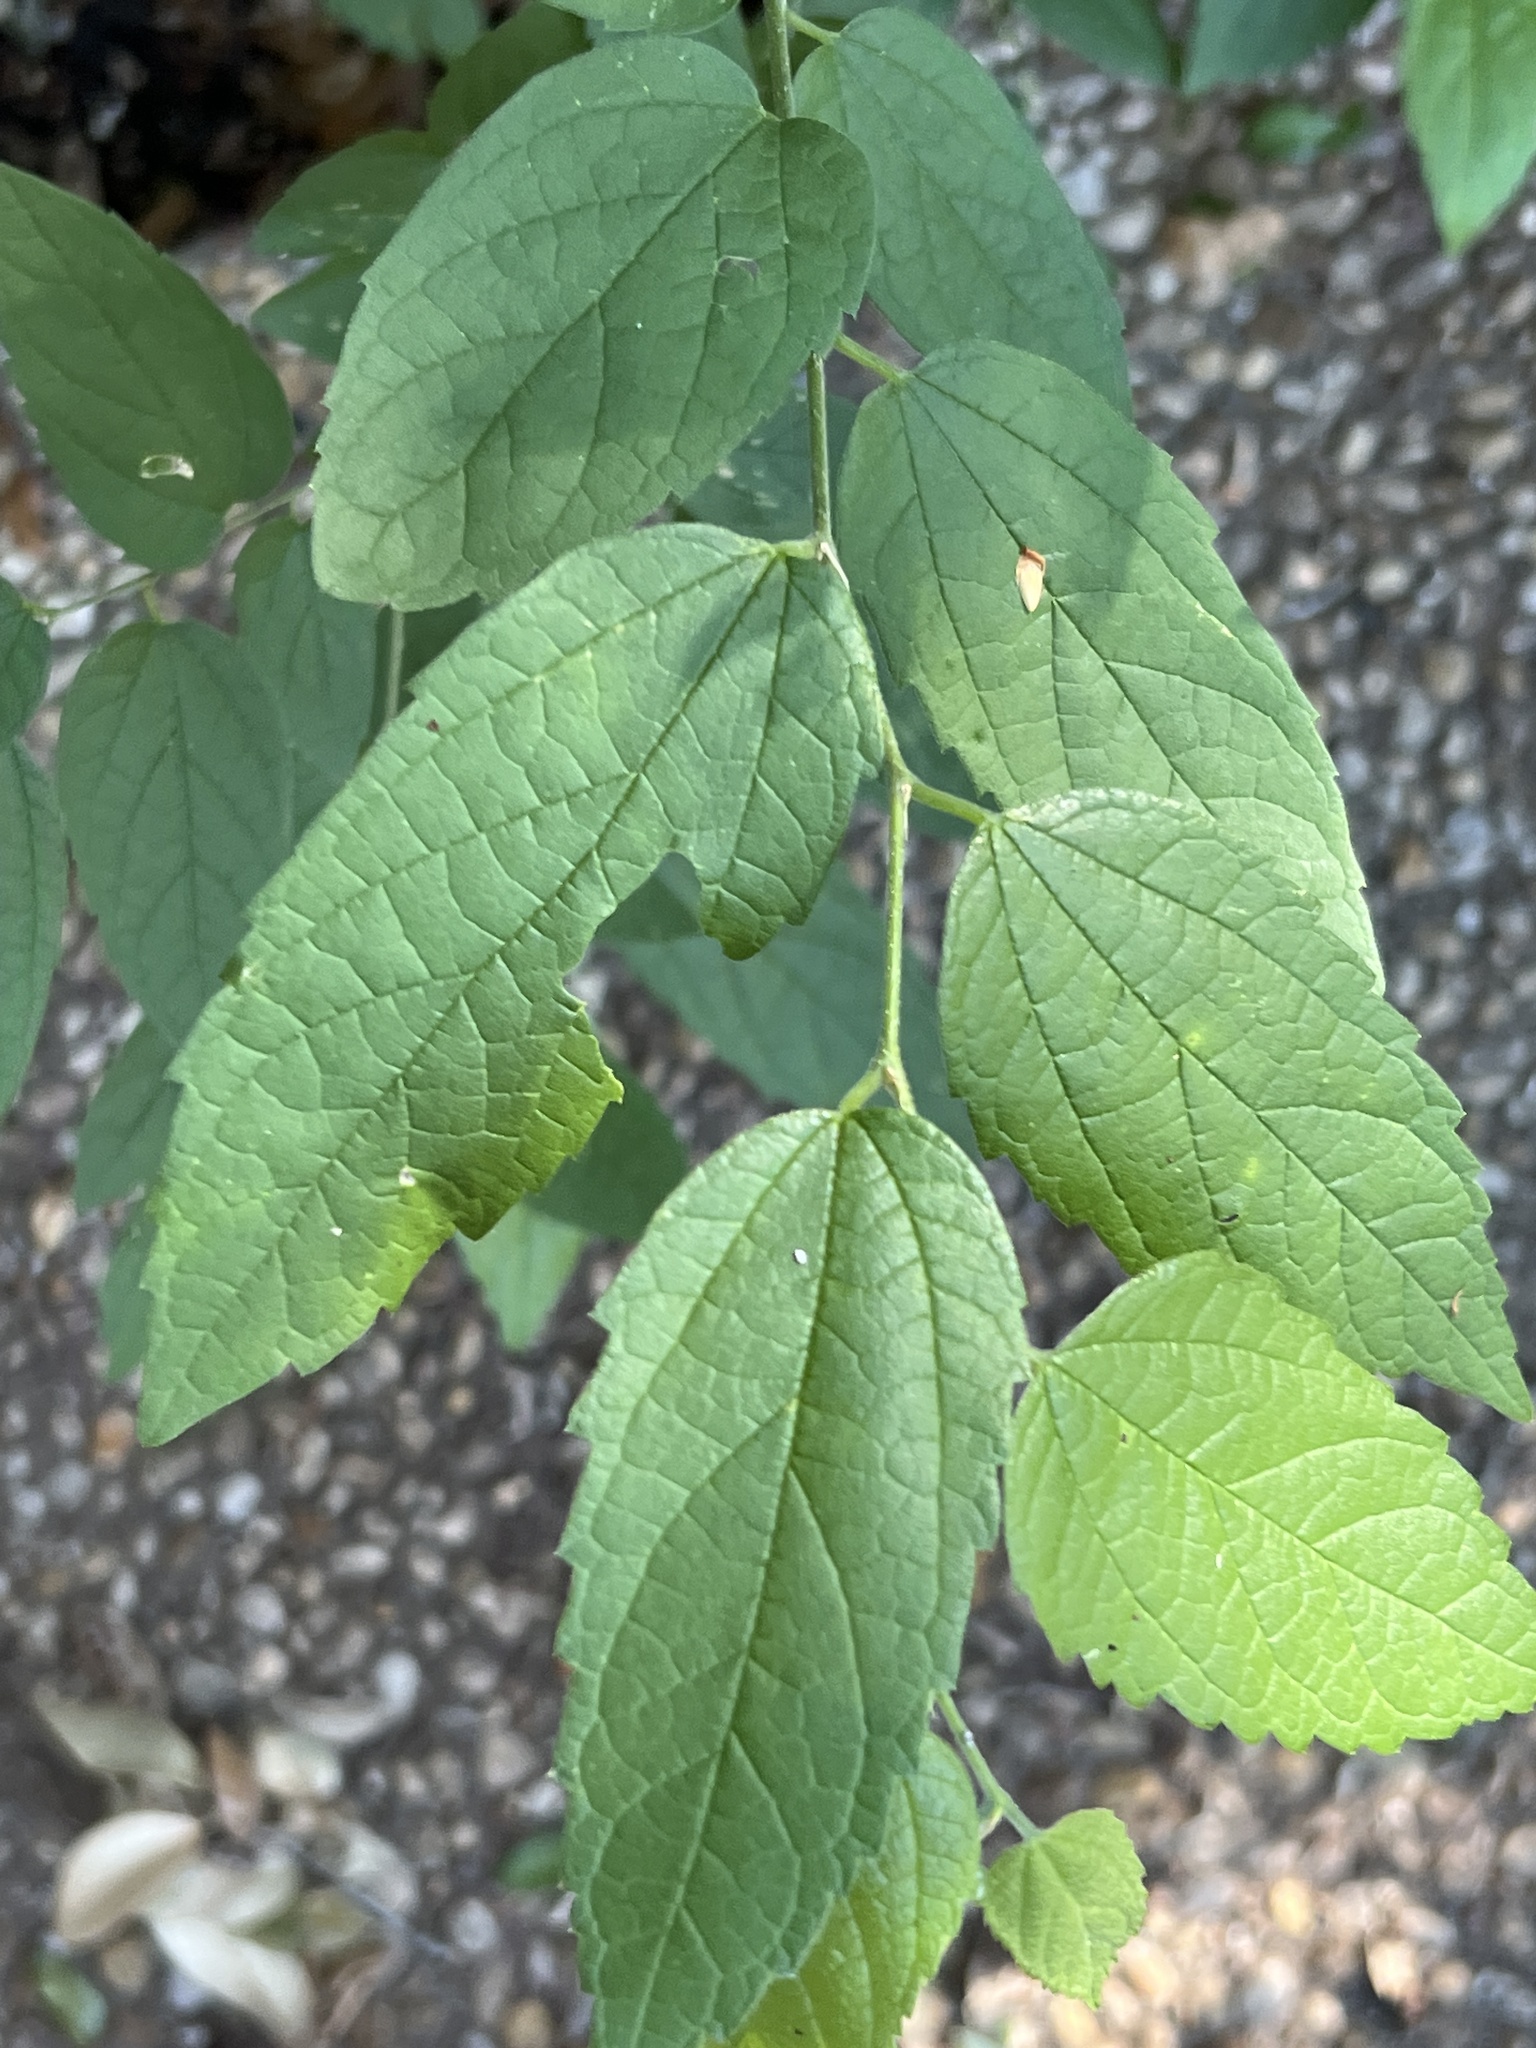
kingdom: Plantae
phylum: Tracheophyta
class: Magnoliopsida
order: Rosales
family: Cannabaceae
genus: Celtis
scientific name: Celtis laevigata
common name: Sugarberry
